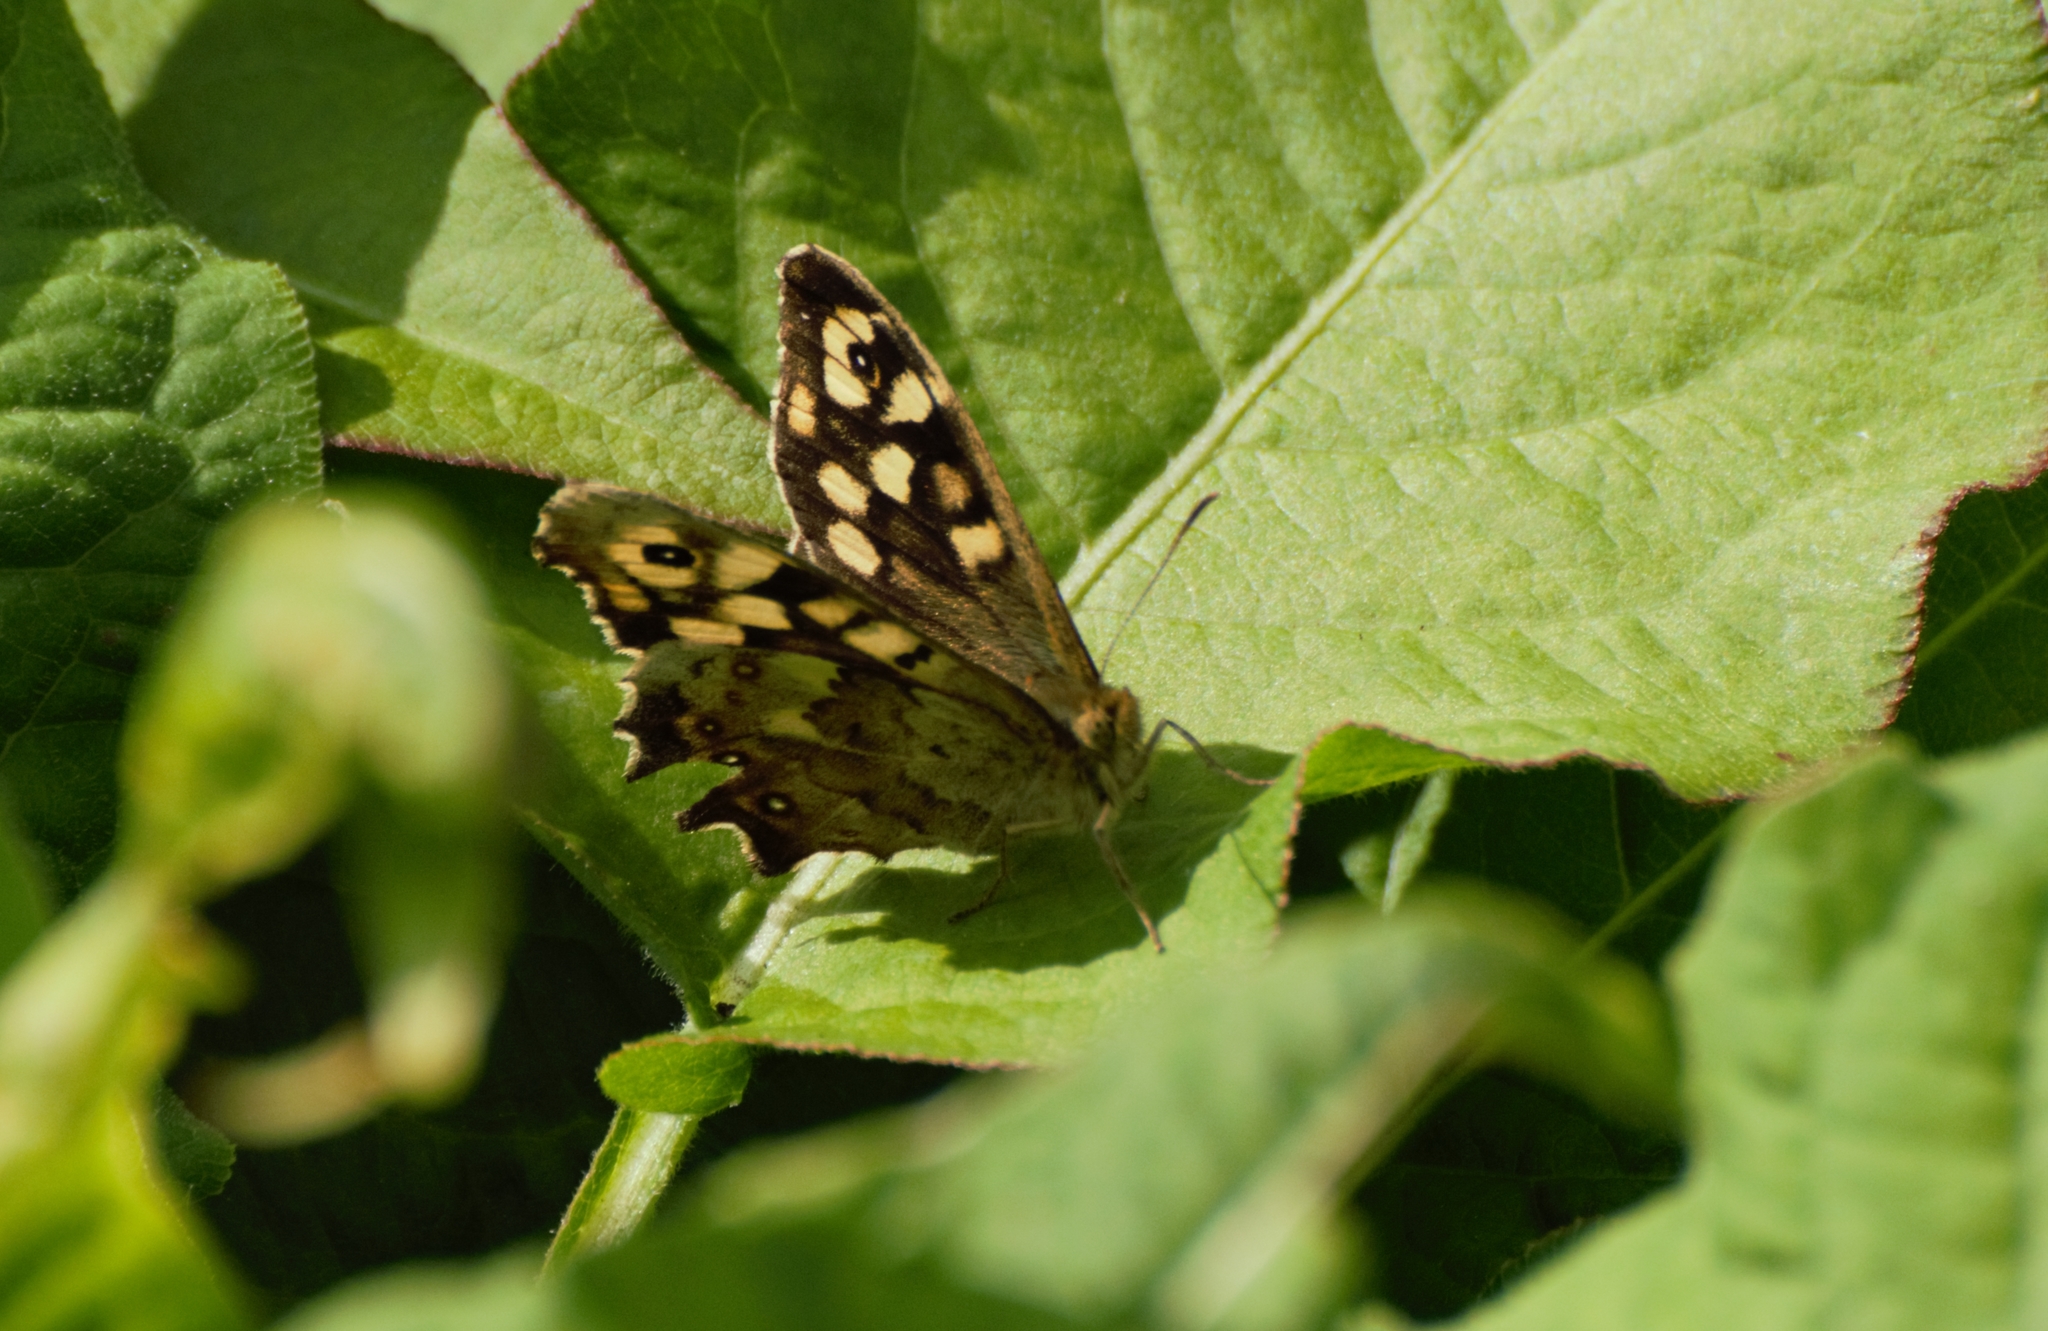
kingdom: Animalia
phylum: Arthropoda
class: Insecta
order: Lepidoptera
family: Nymphalidae
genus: Pararge
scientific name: Pararge aegeria
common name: Speckled wood
